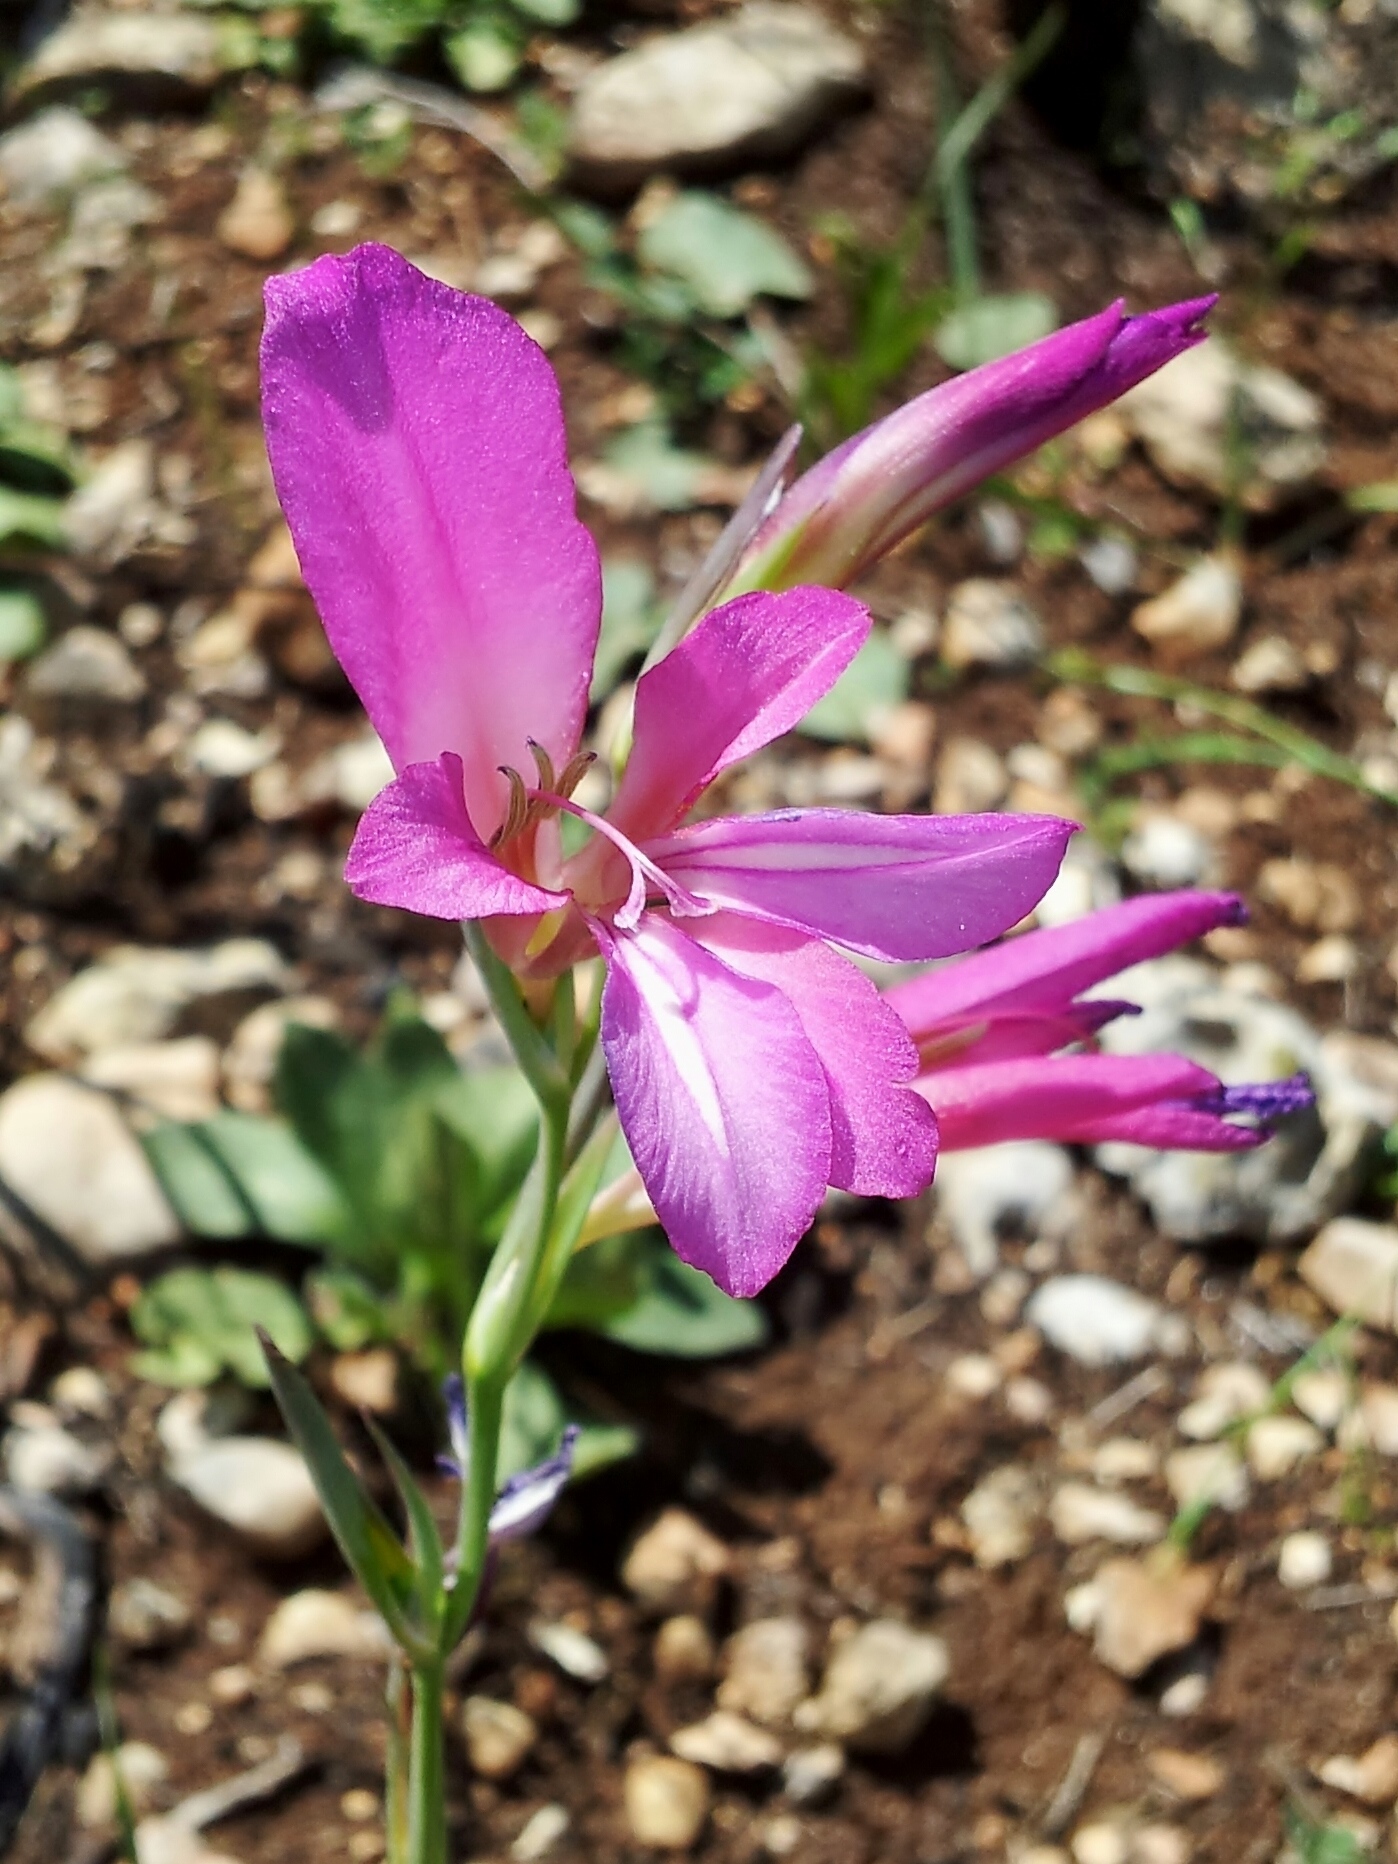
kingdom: Plantae
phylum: Tracheophyta
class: Liliopsida
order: Asparagales
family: Iridaceae
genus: Gladiolus
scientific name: Gladiolus italicus
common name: Field gladiolus
